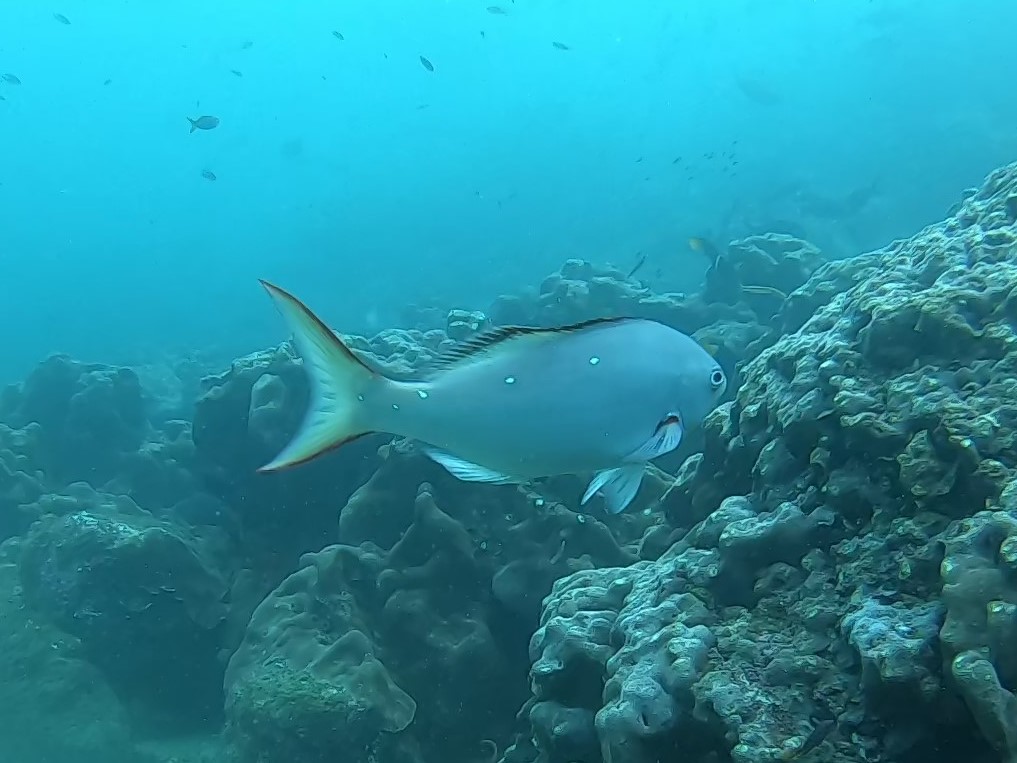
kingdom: Animalia
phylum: Chordata
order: Perciformes
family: Serranidae
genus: Paranthias
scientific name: Paranthias colonus
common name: Pacific creole-fish
